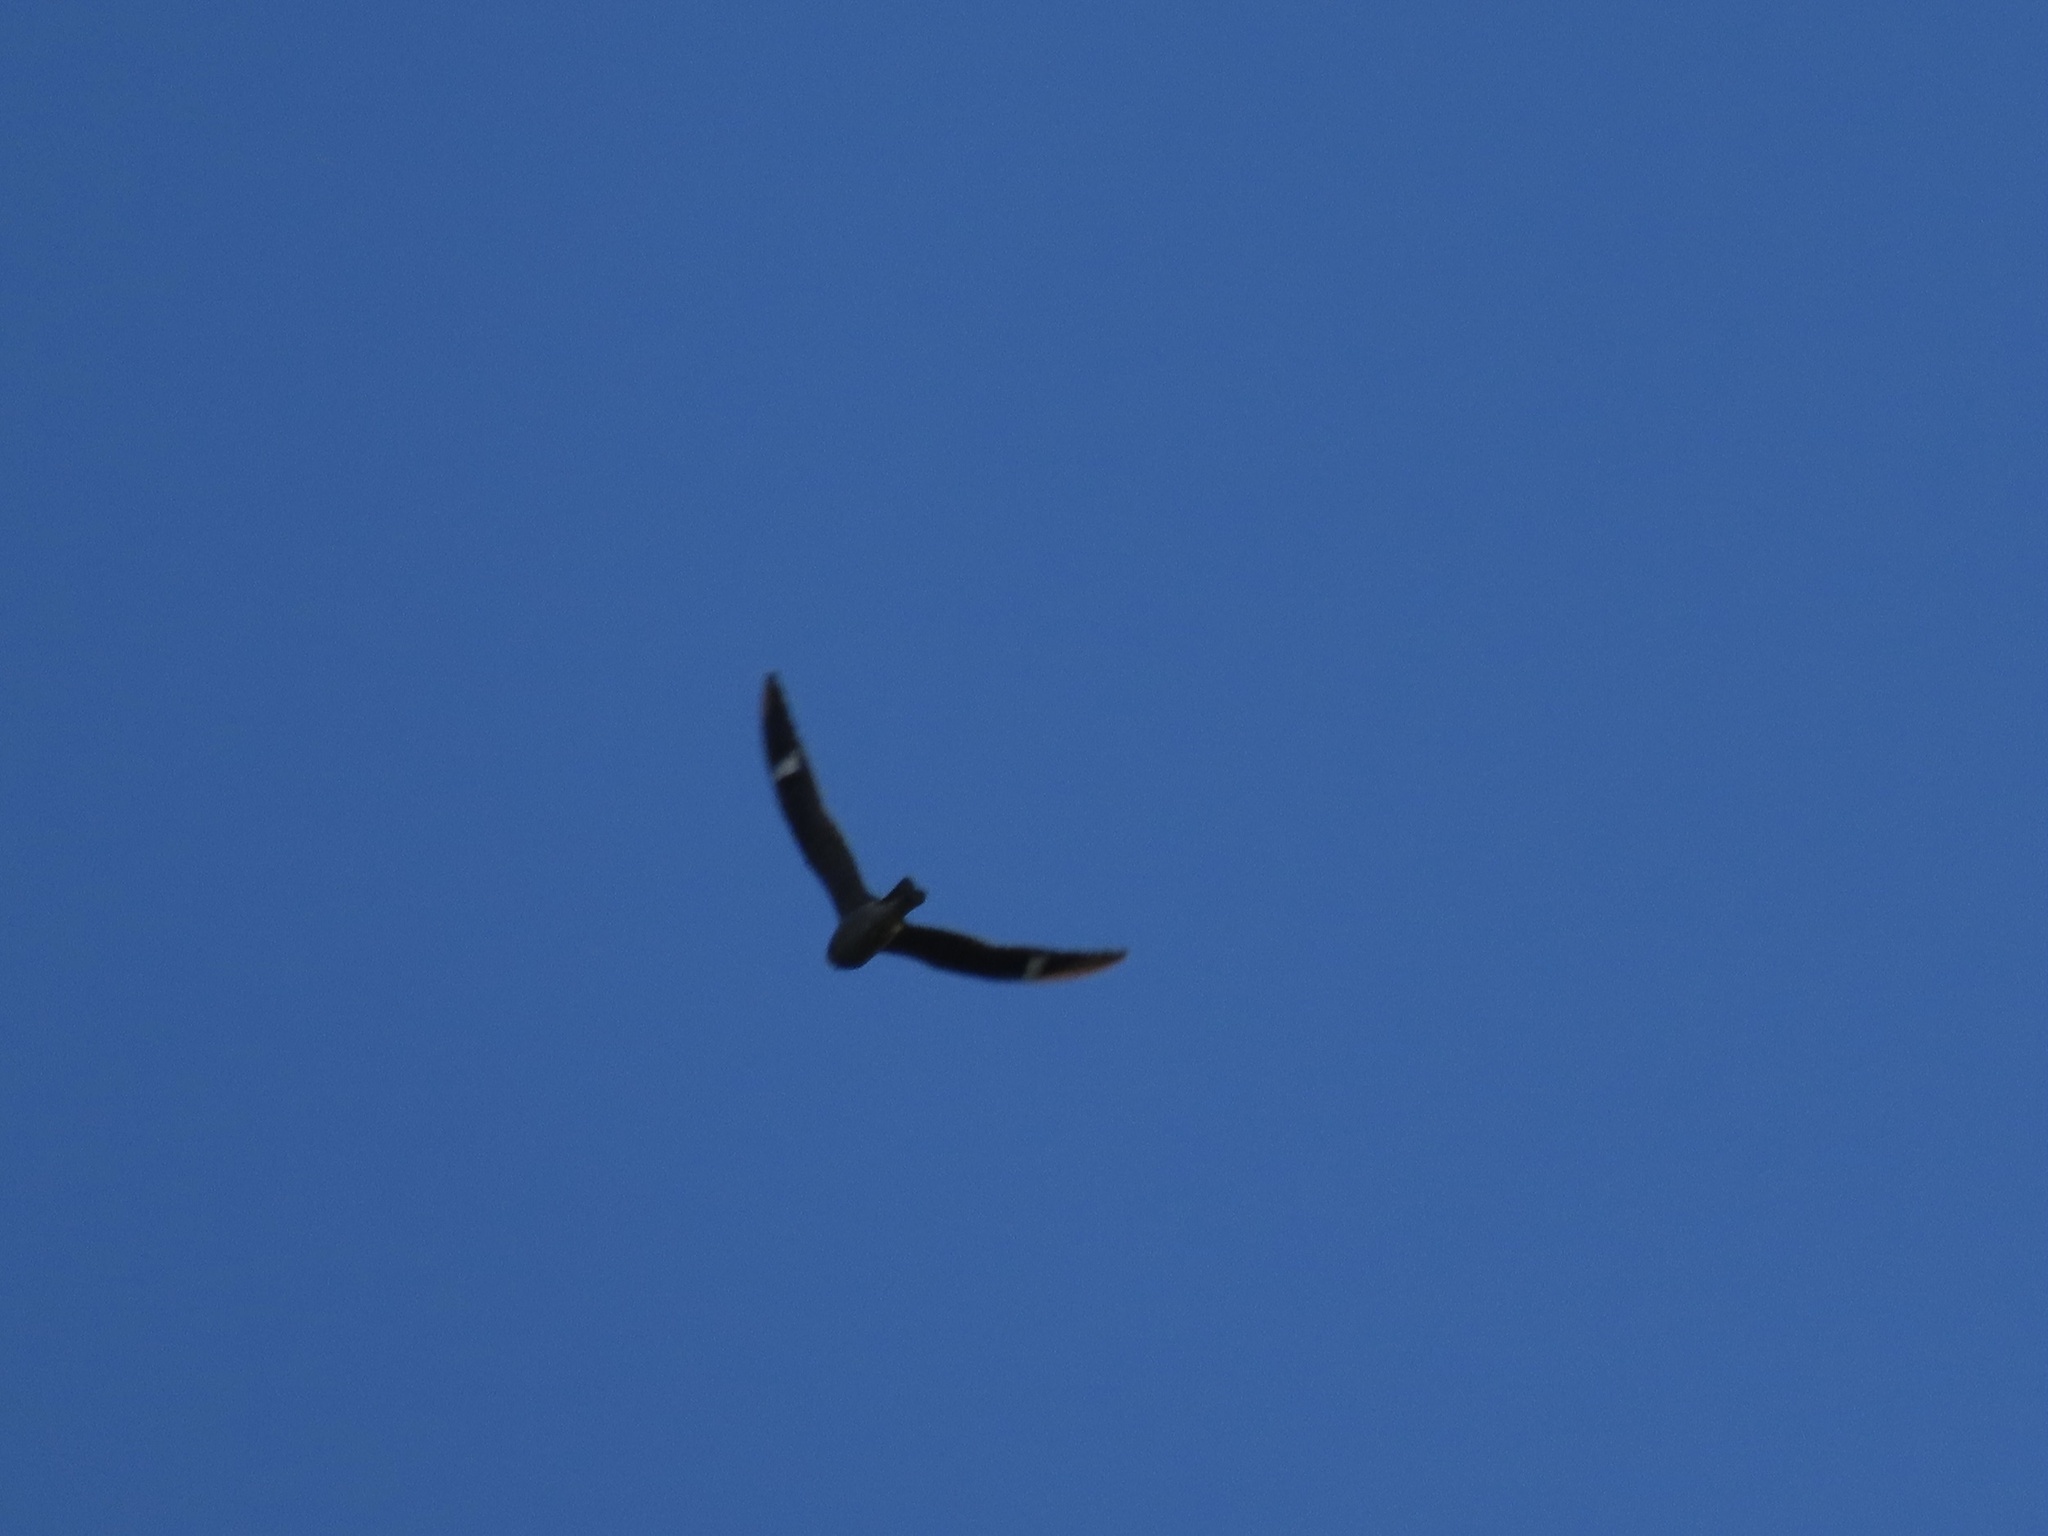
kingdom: Animalia
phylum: Chordata
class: Aves
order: Caprimulgiformes
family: Caprimulgidae
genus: Chordeiles
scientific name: Chordeiles minor
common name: Common nighthawk
